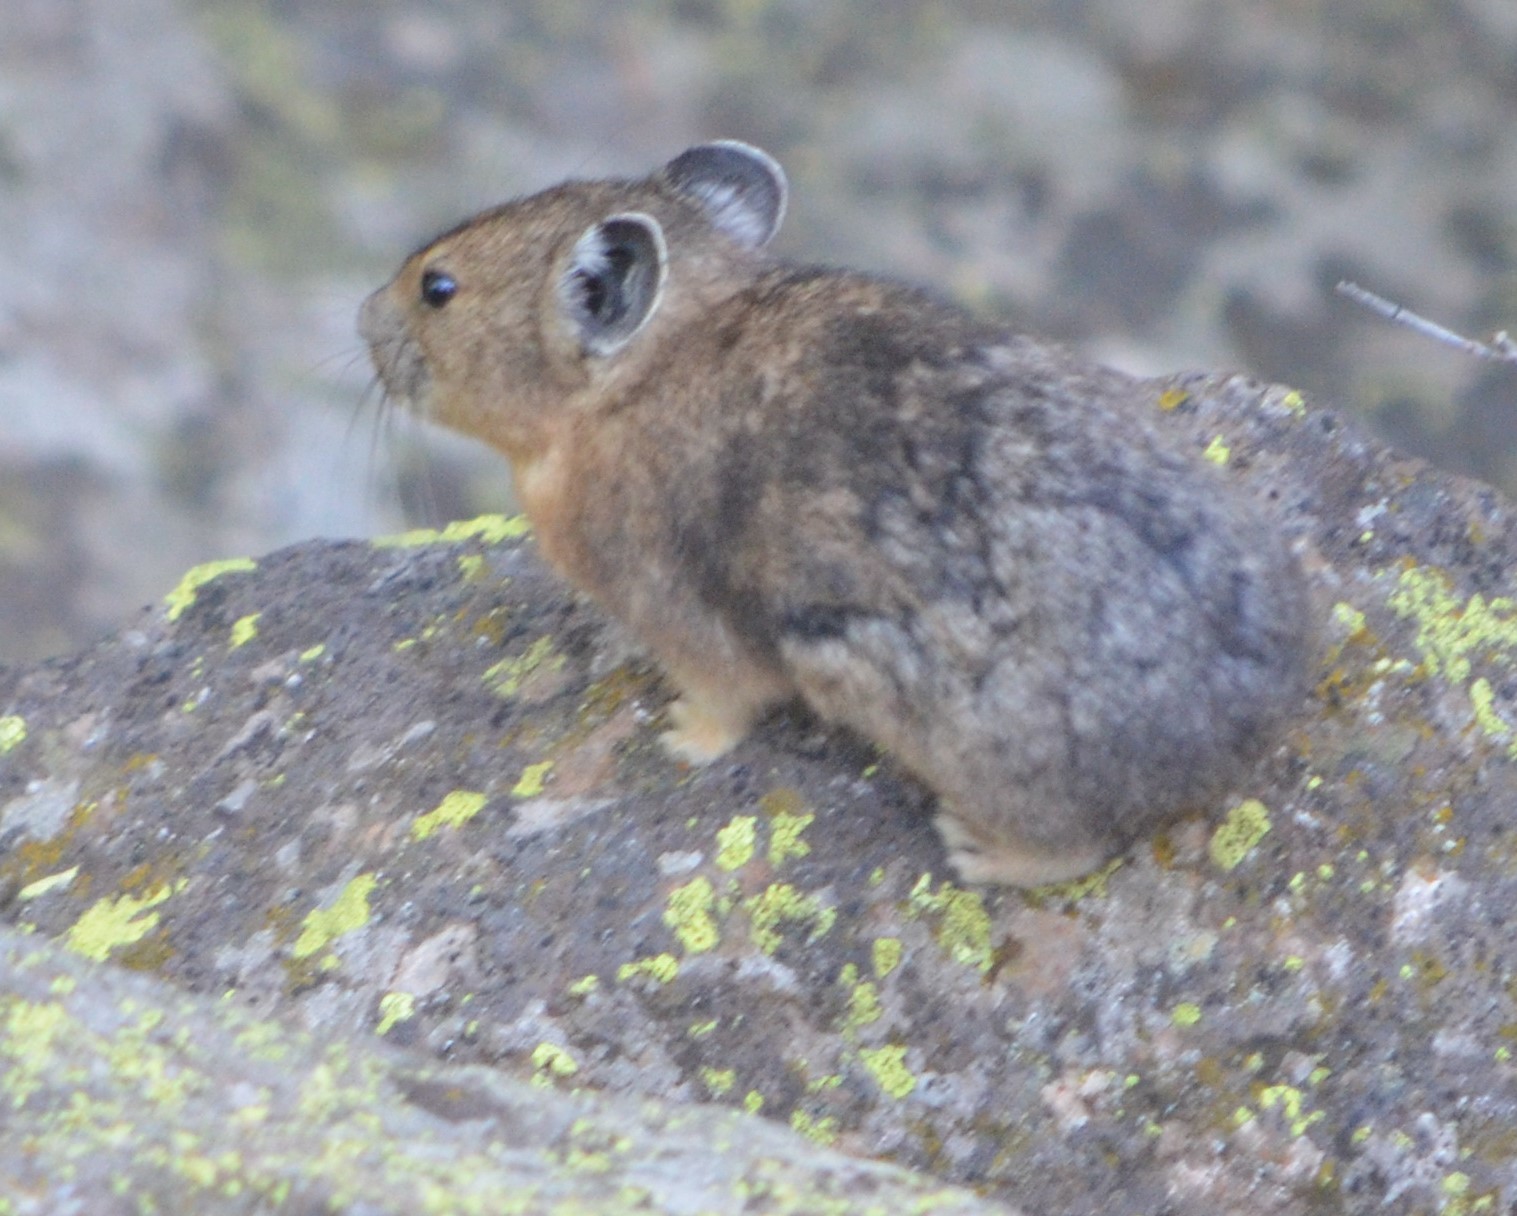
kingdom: Animalia
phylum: Chordata
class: Mammalia
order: Lagomorpha
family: Ochotonidae
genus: Ochotona
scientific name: Ochotona princeps
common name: American pika
